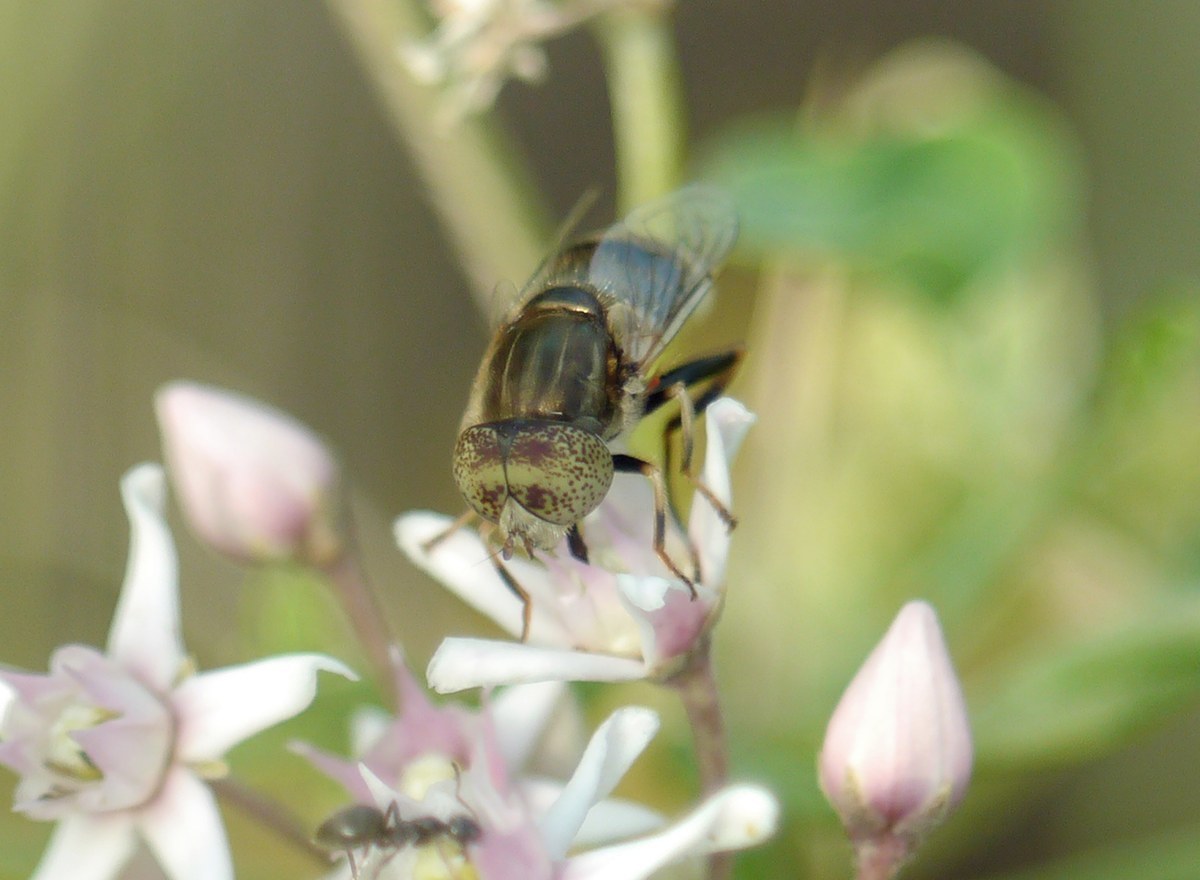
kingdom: Animalia
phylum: Arthropoda
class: Insecta
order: Diptera
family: Syrphidae
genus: Eristalinus
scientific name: Eristalinus aeneus
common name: Syrphid fly
